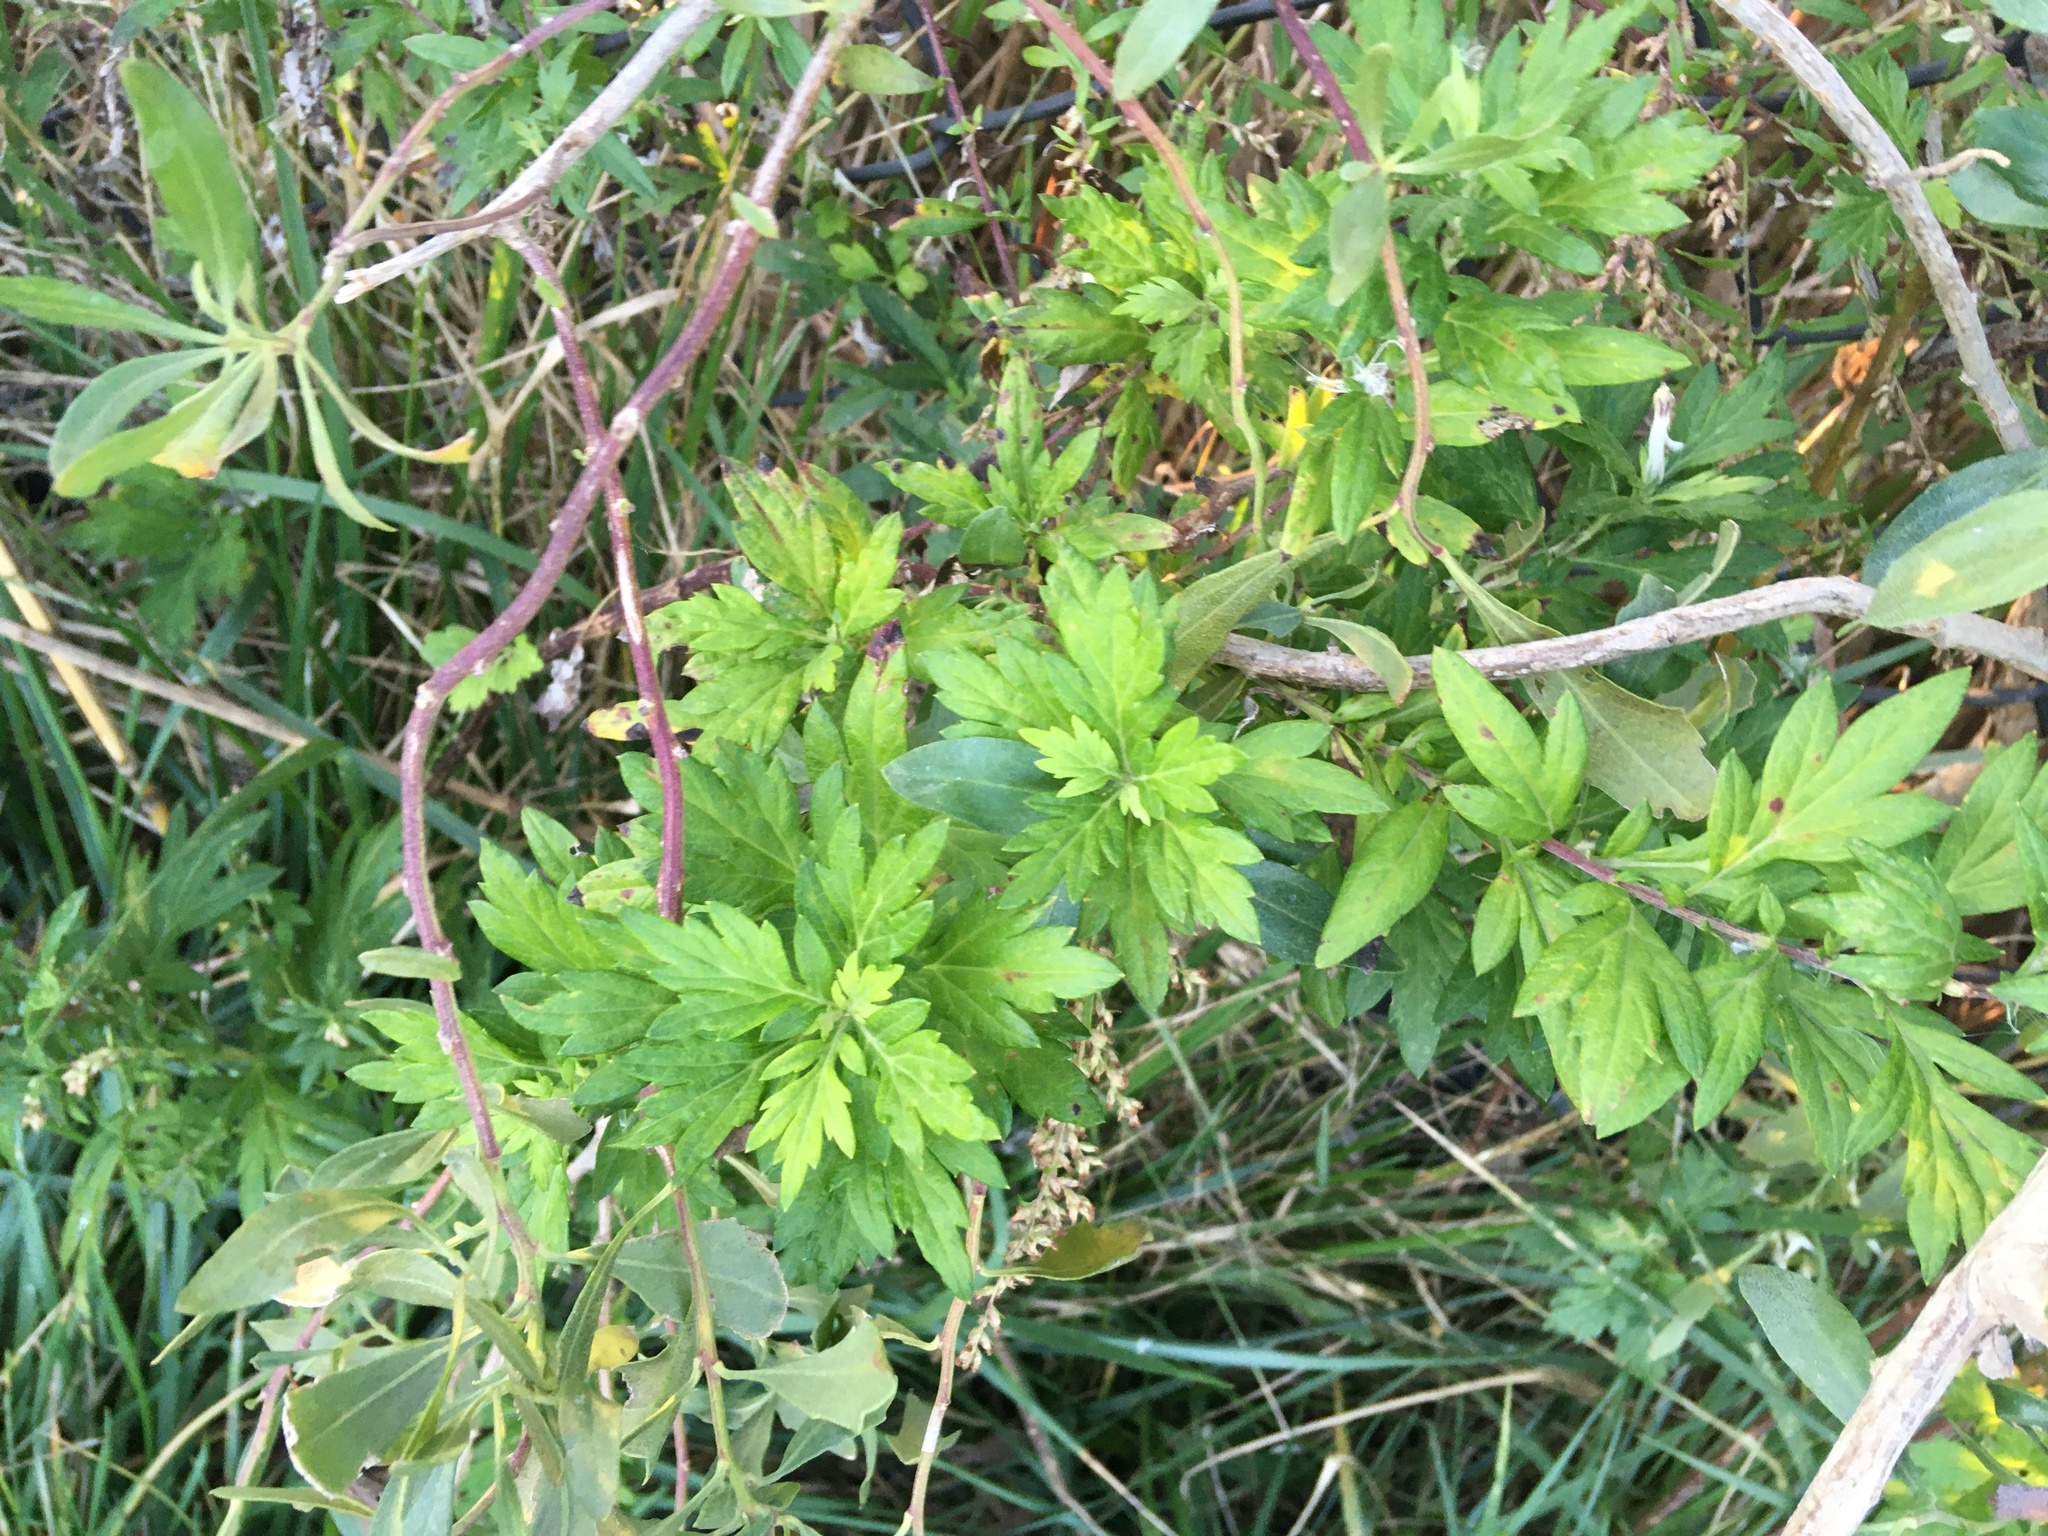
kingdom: Plantae
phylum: Tracheophyta
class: Magnoliopsida
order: Asterales
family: Asteraceae
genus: Artemisia
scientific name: Artemisia vulgaris
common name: Mugwort
